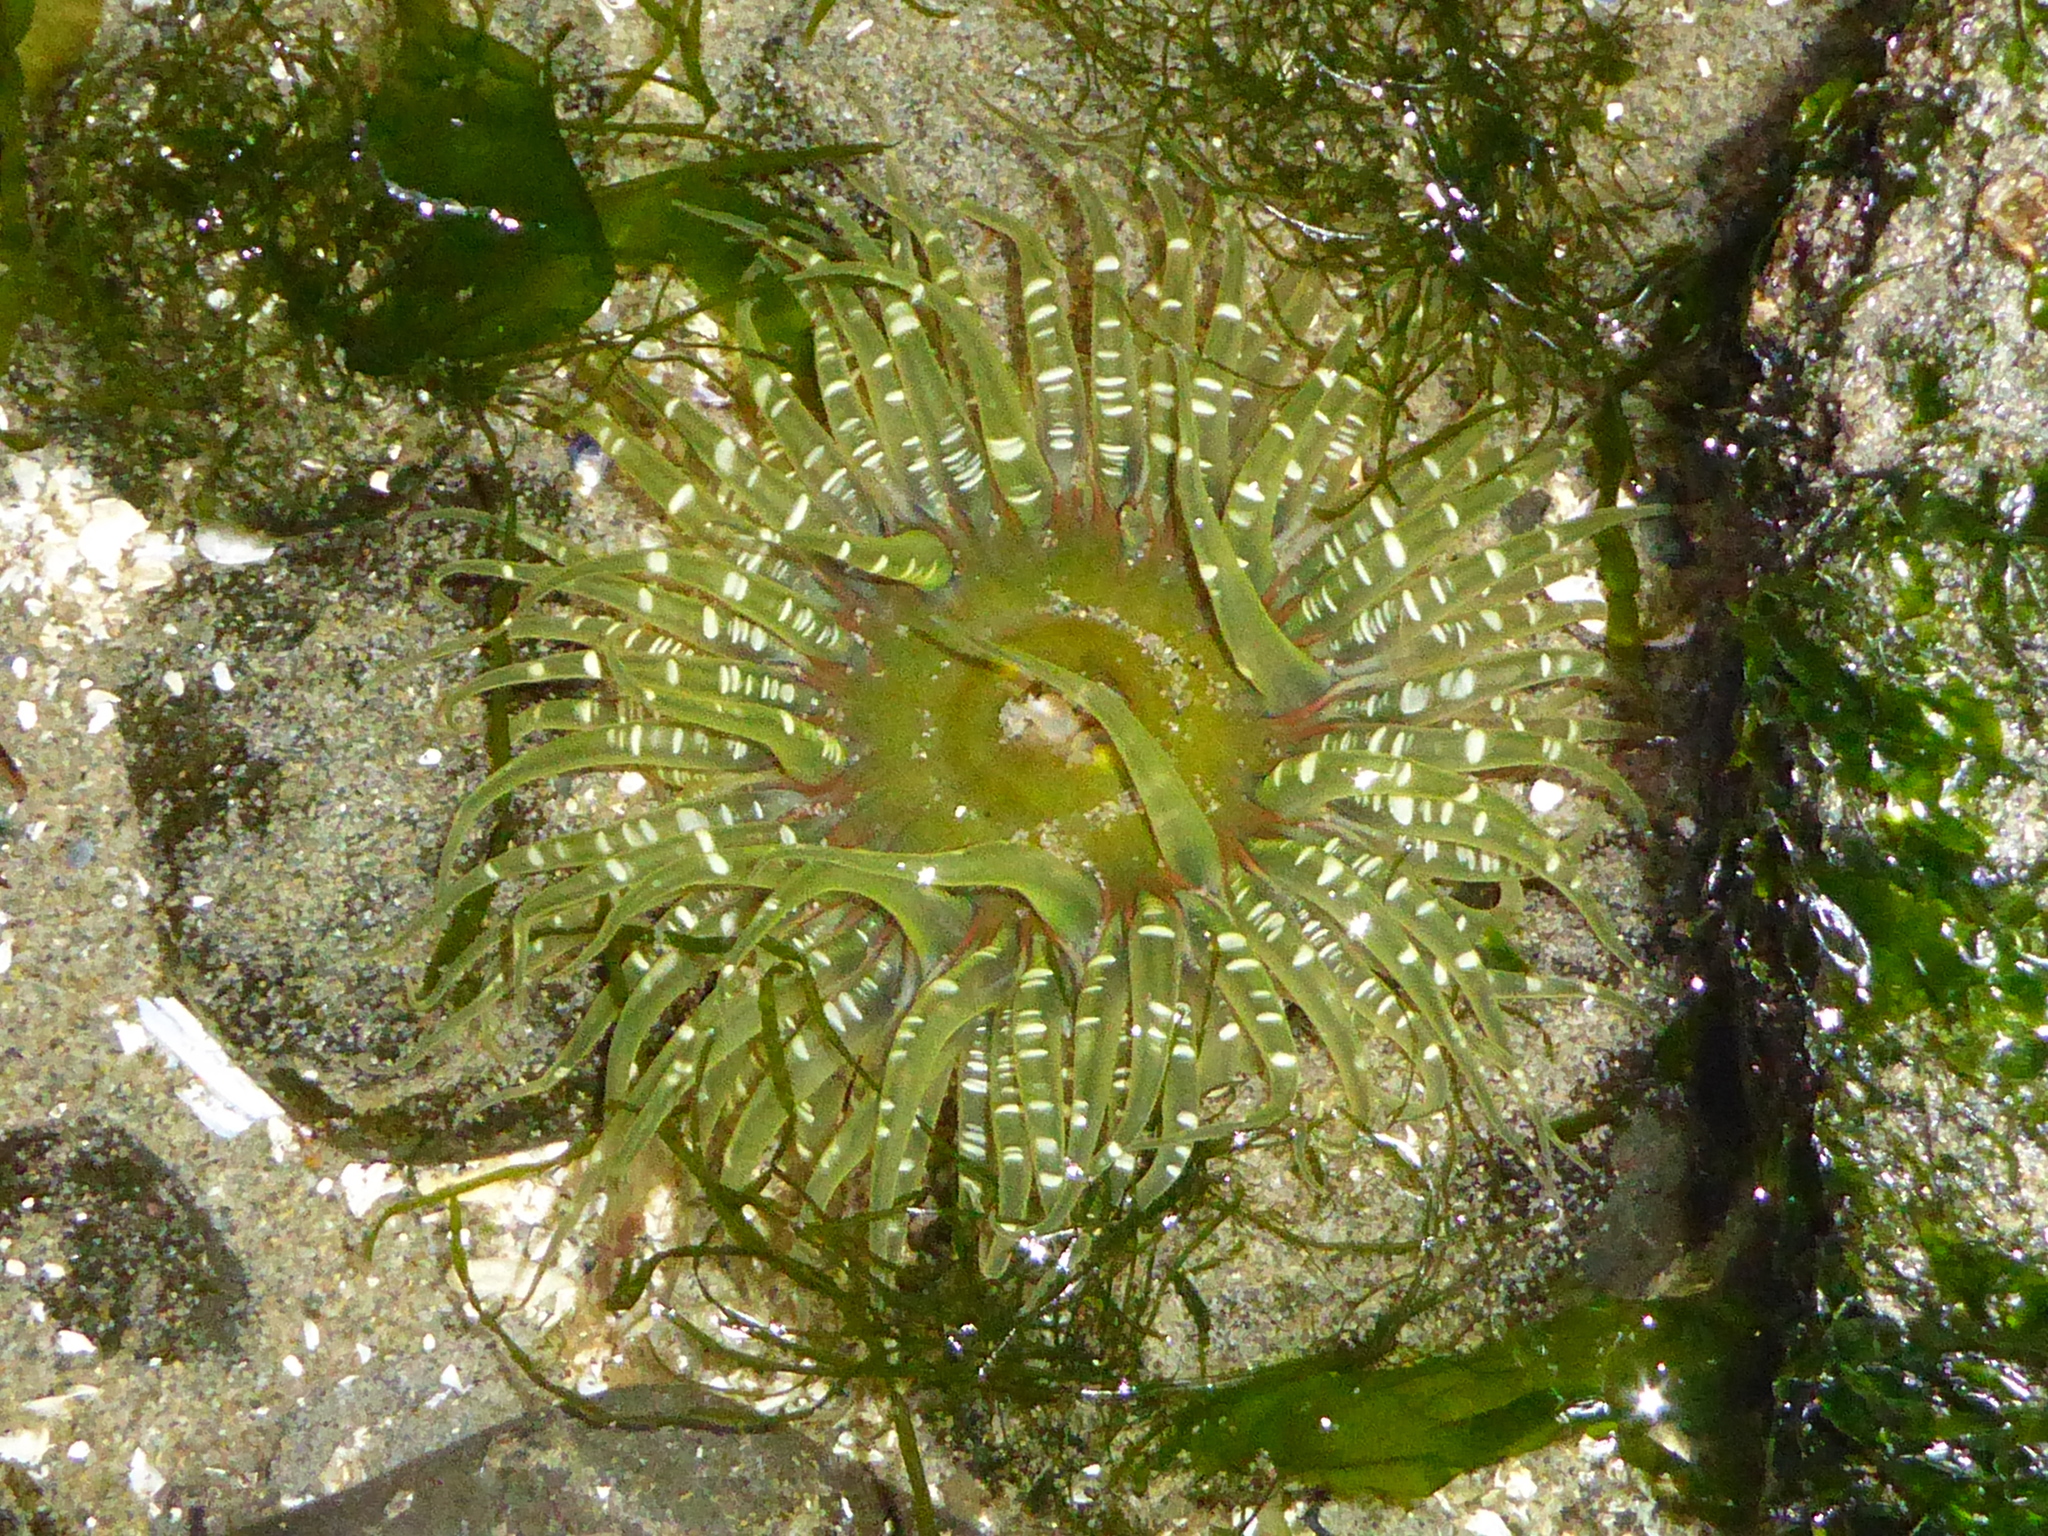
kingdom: Animalia
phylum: Cnidaria
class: Anthozoa
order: Actiniaria
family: Actiniidae
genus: Anthopleura
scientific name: Anthopleura artemisia
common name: Buried sea anemone
